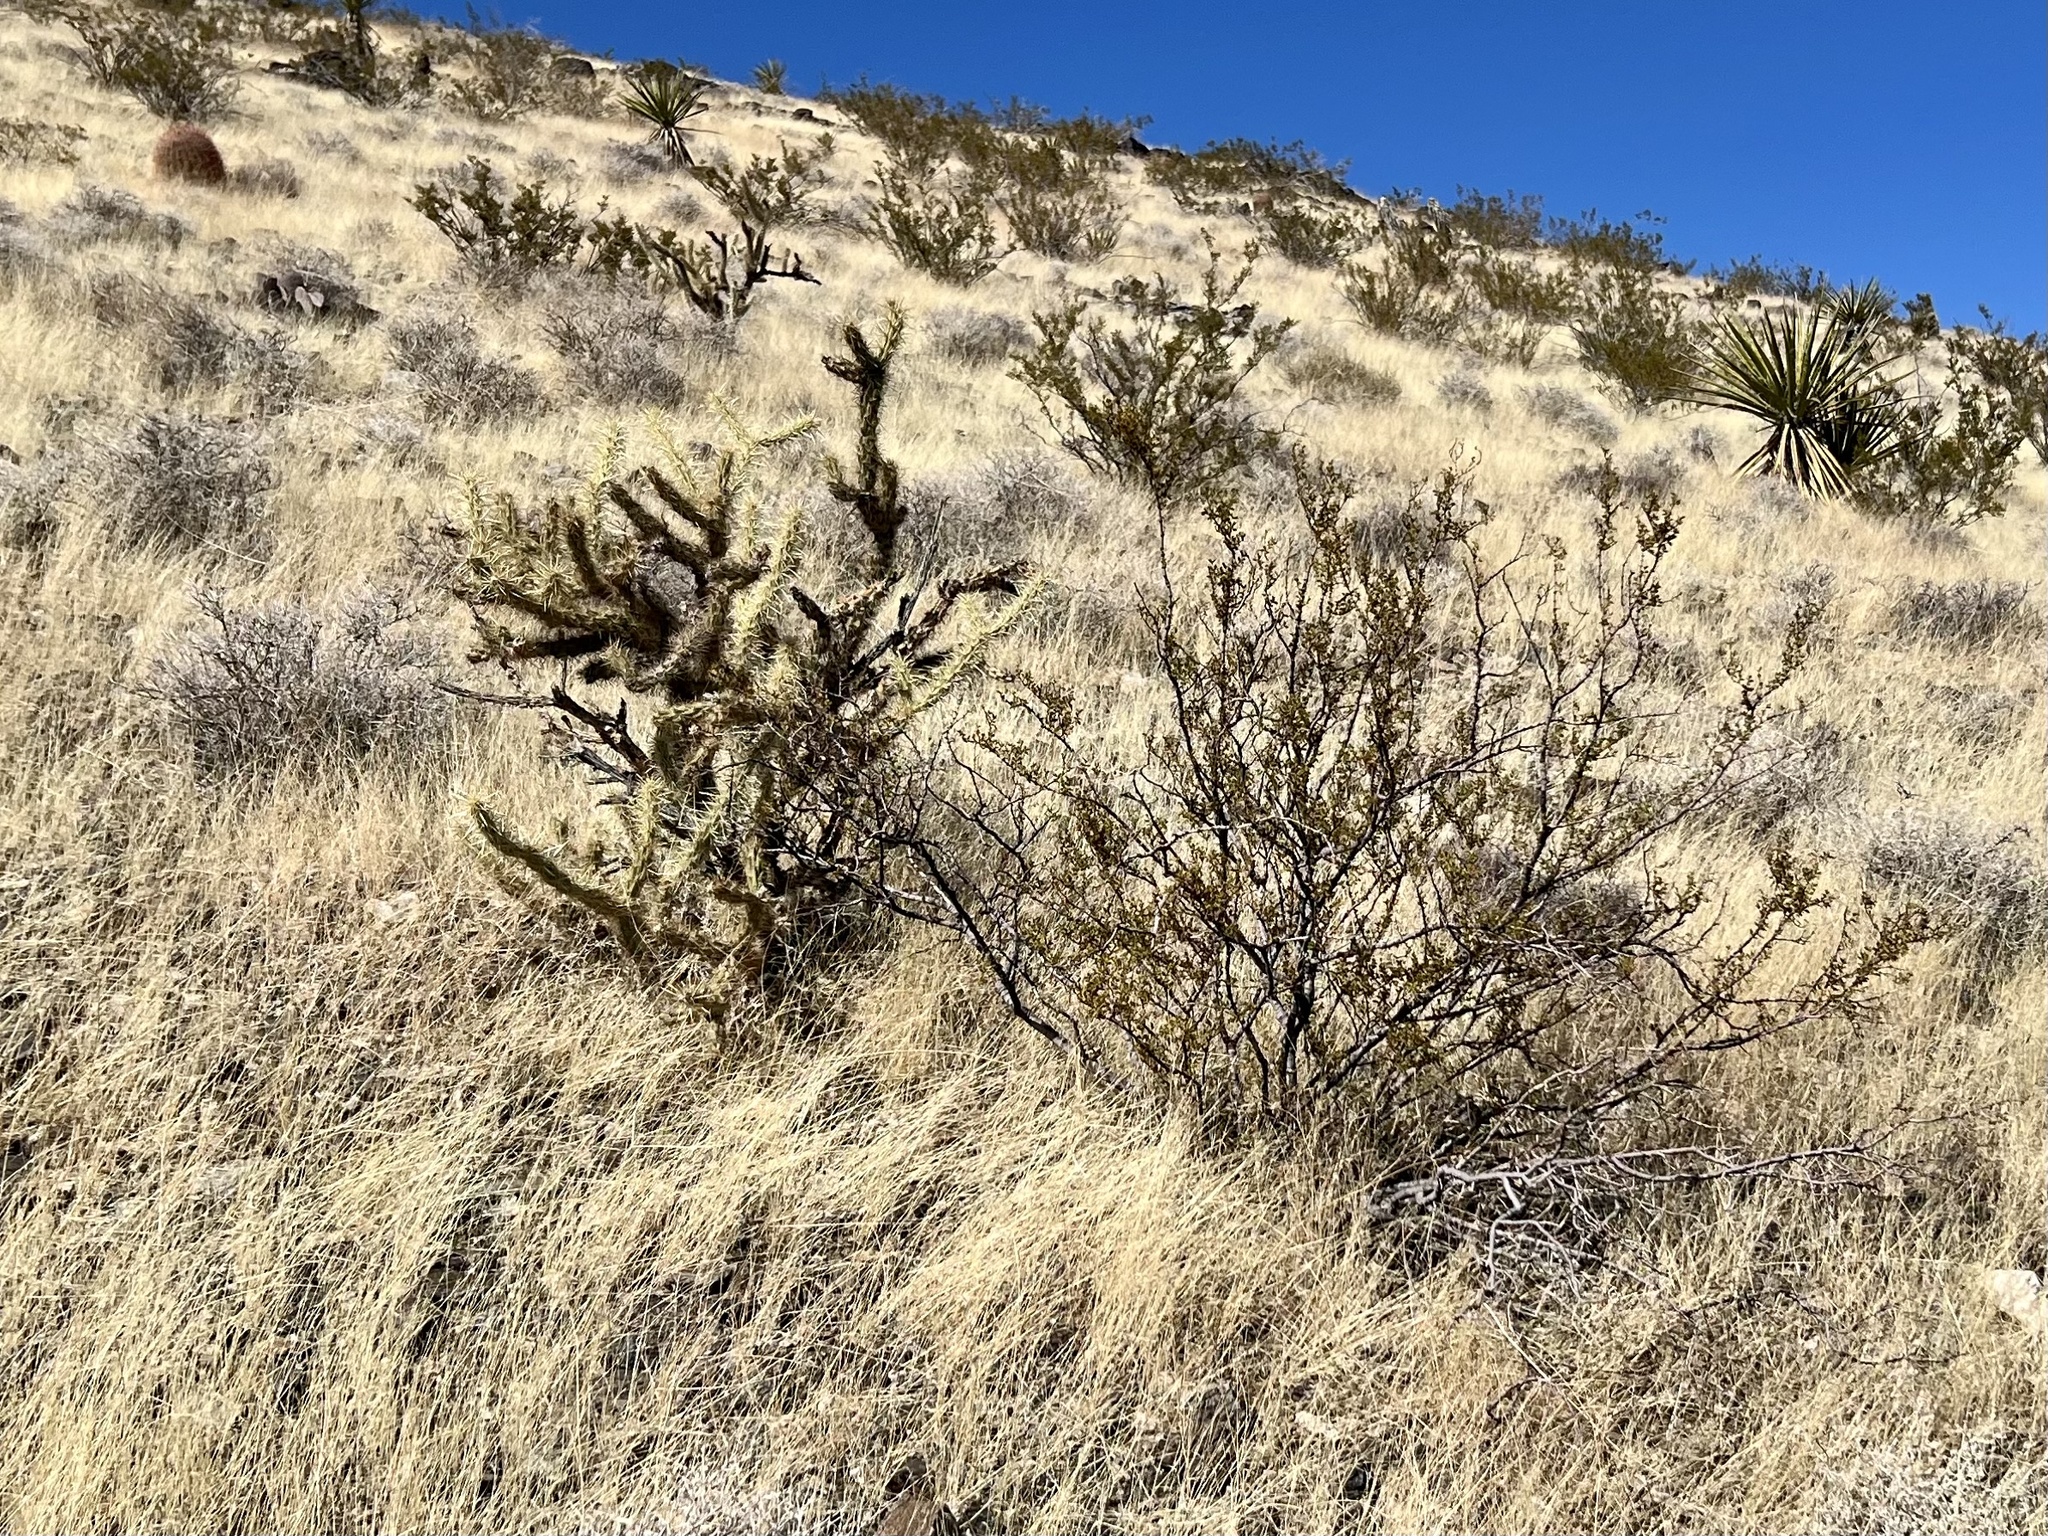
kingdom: Plantae
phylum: Tracheophyta
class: Magnoliopsida
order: Zygophyllales
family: Zygophyllaceae
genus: Larrea
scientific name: Larrea tridentata
